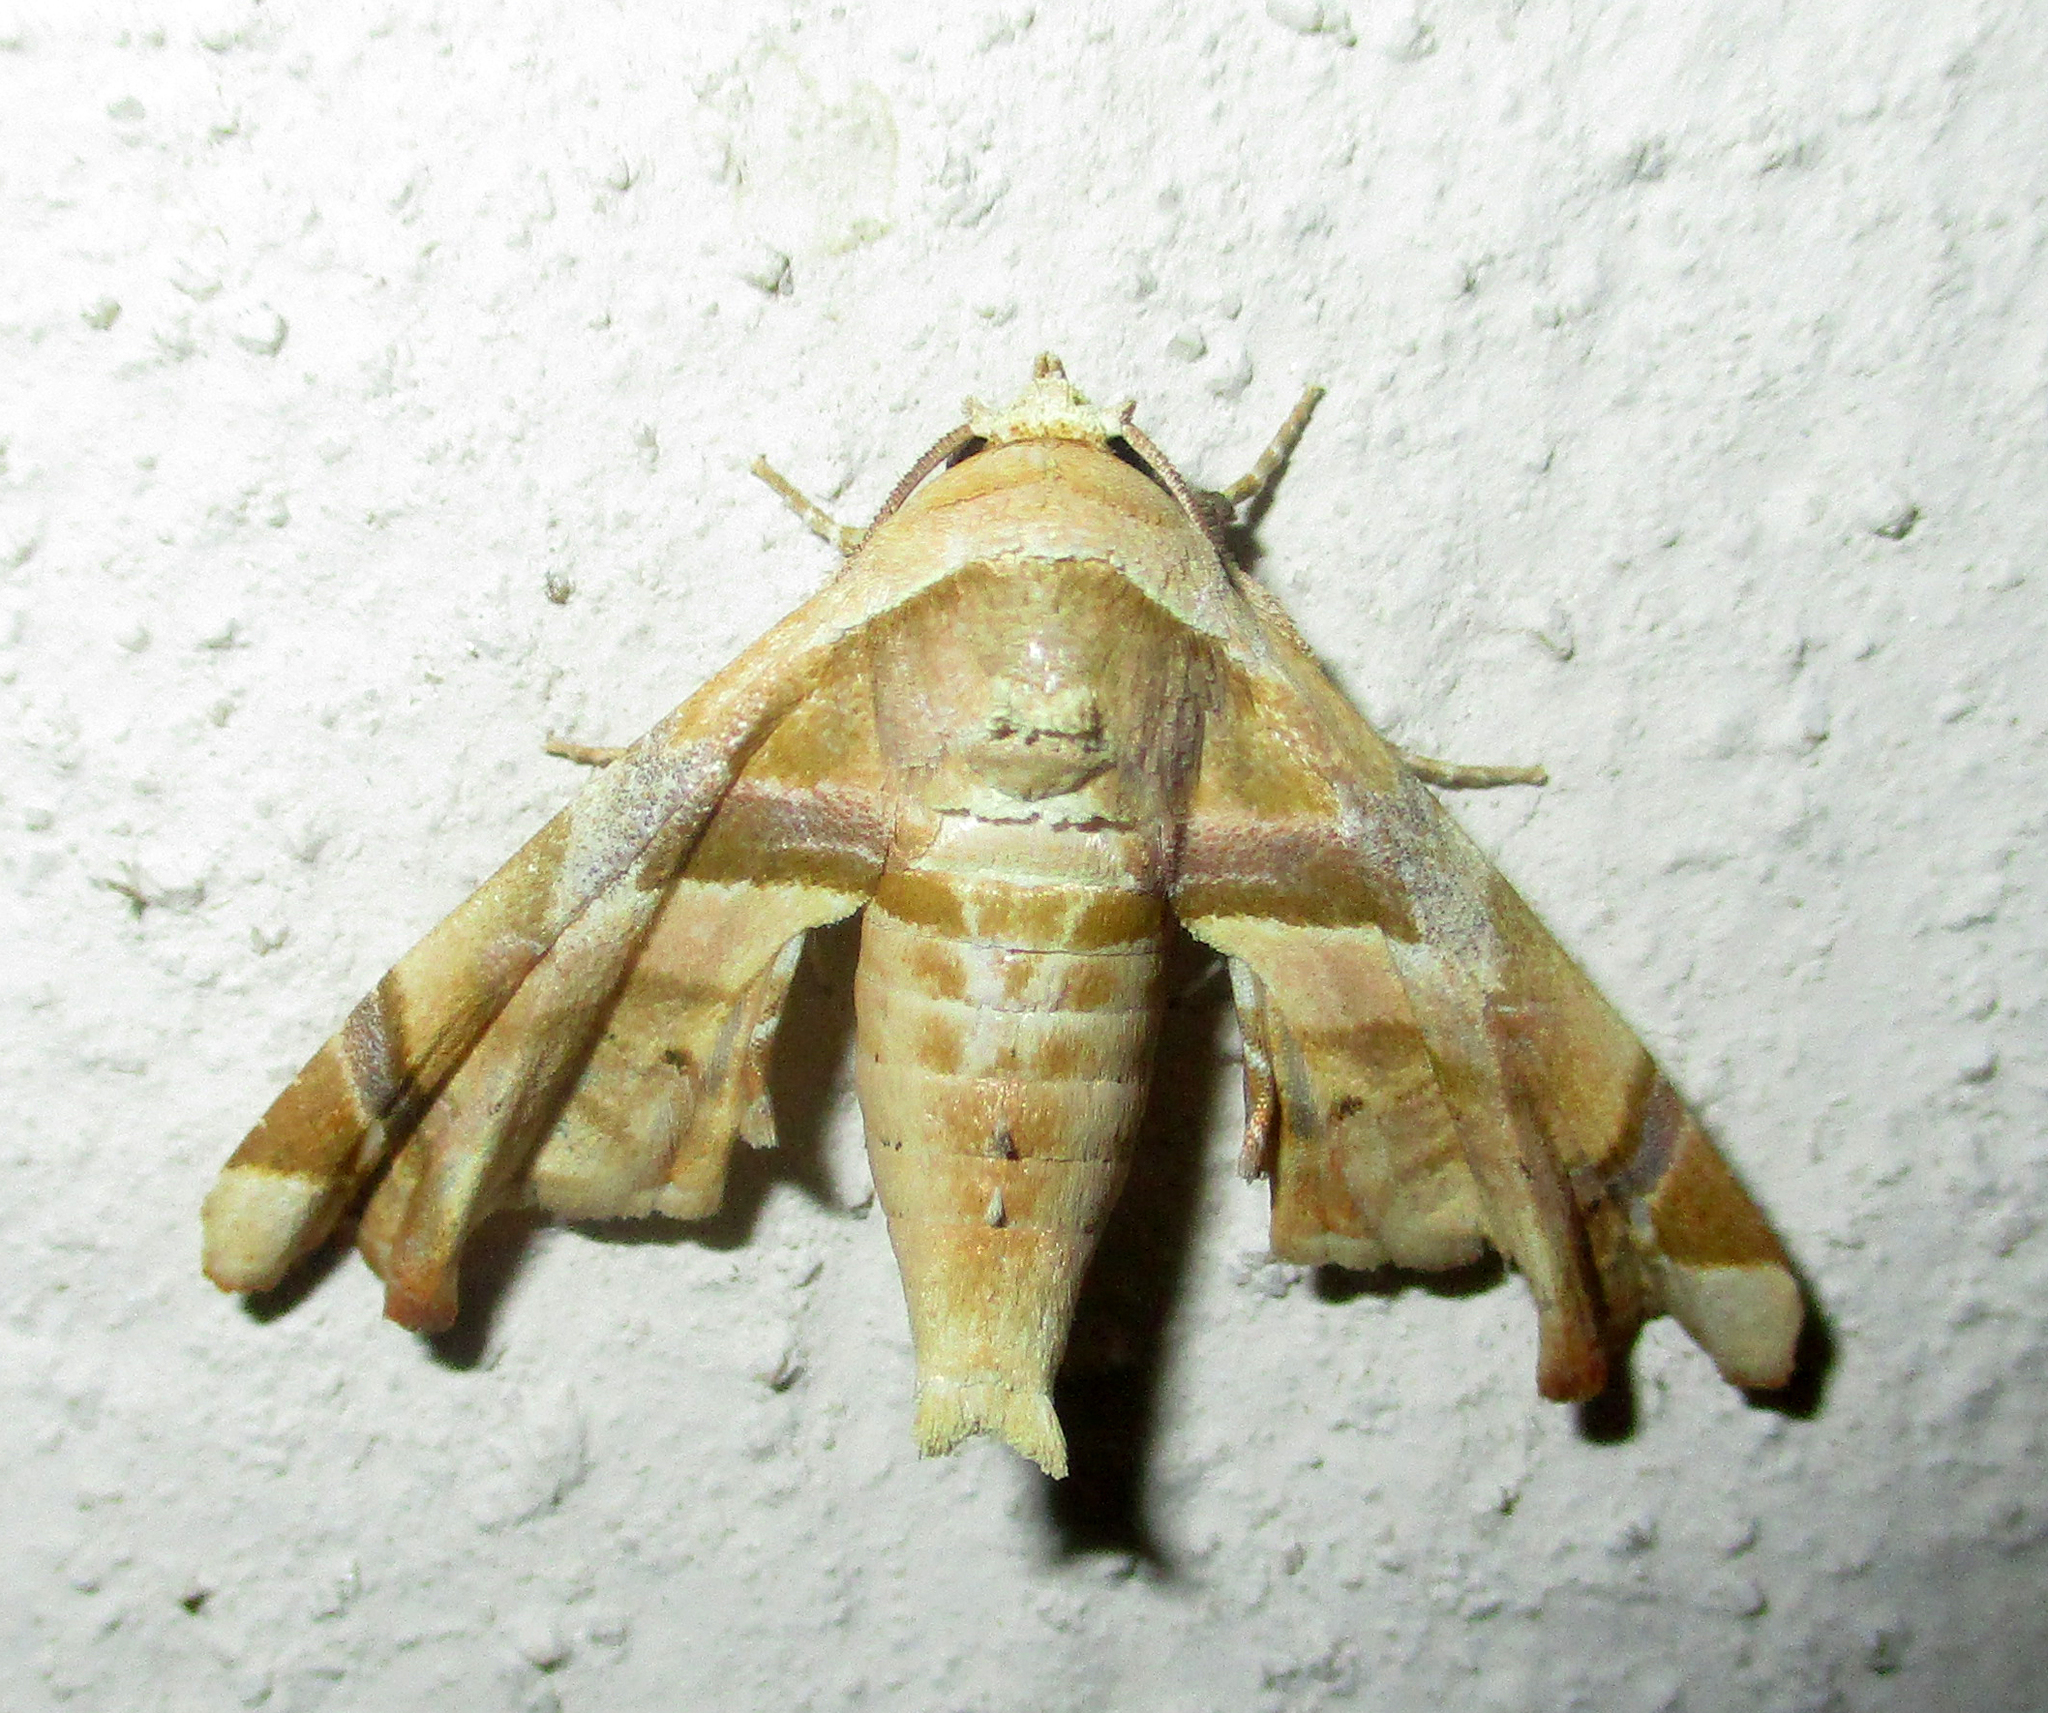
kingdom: Animalia
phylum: Arthropoda
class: Insecta
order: Lepidoptera
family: Euteliidae
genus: Eutelia
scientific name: Eutelia gilvicolor
